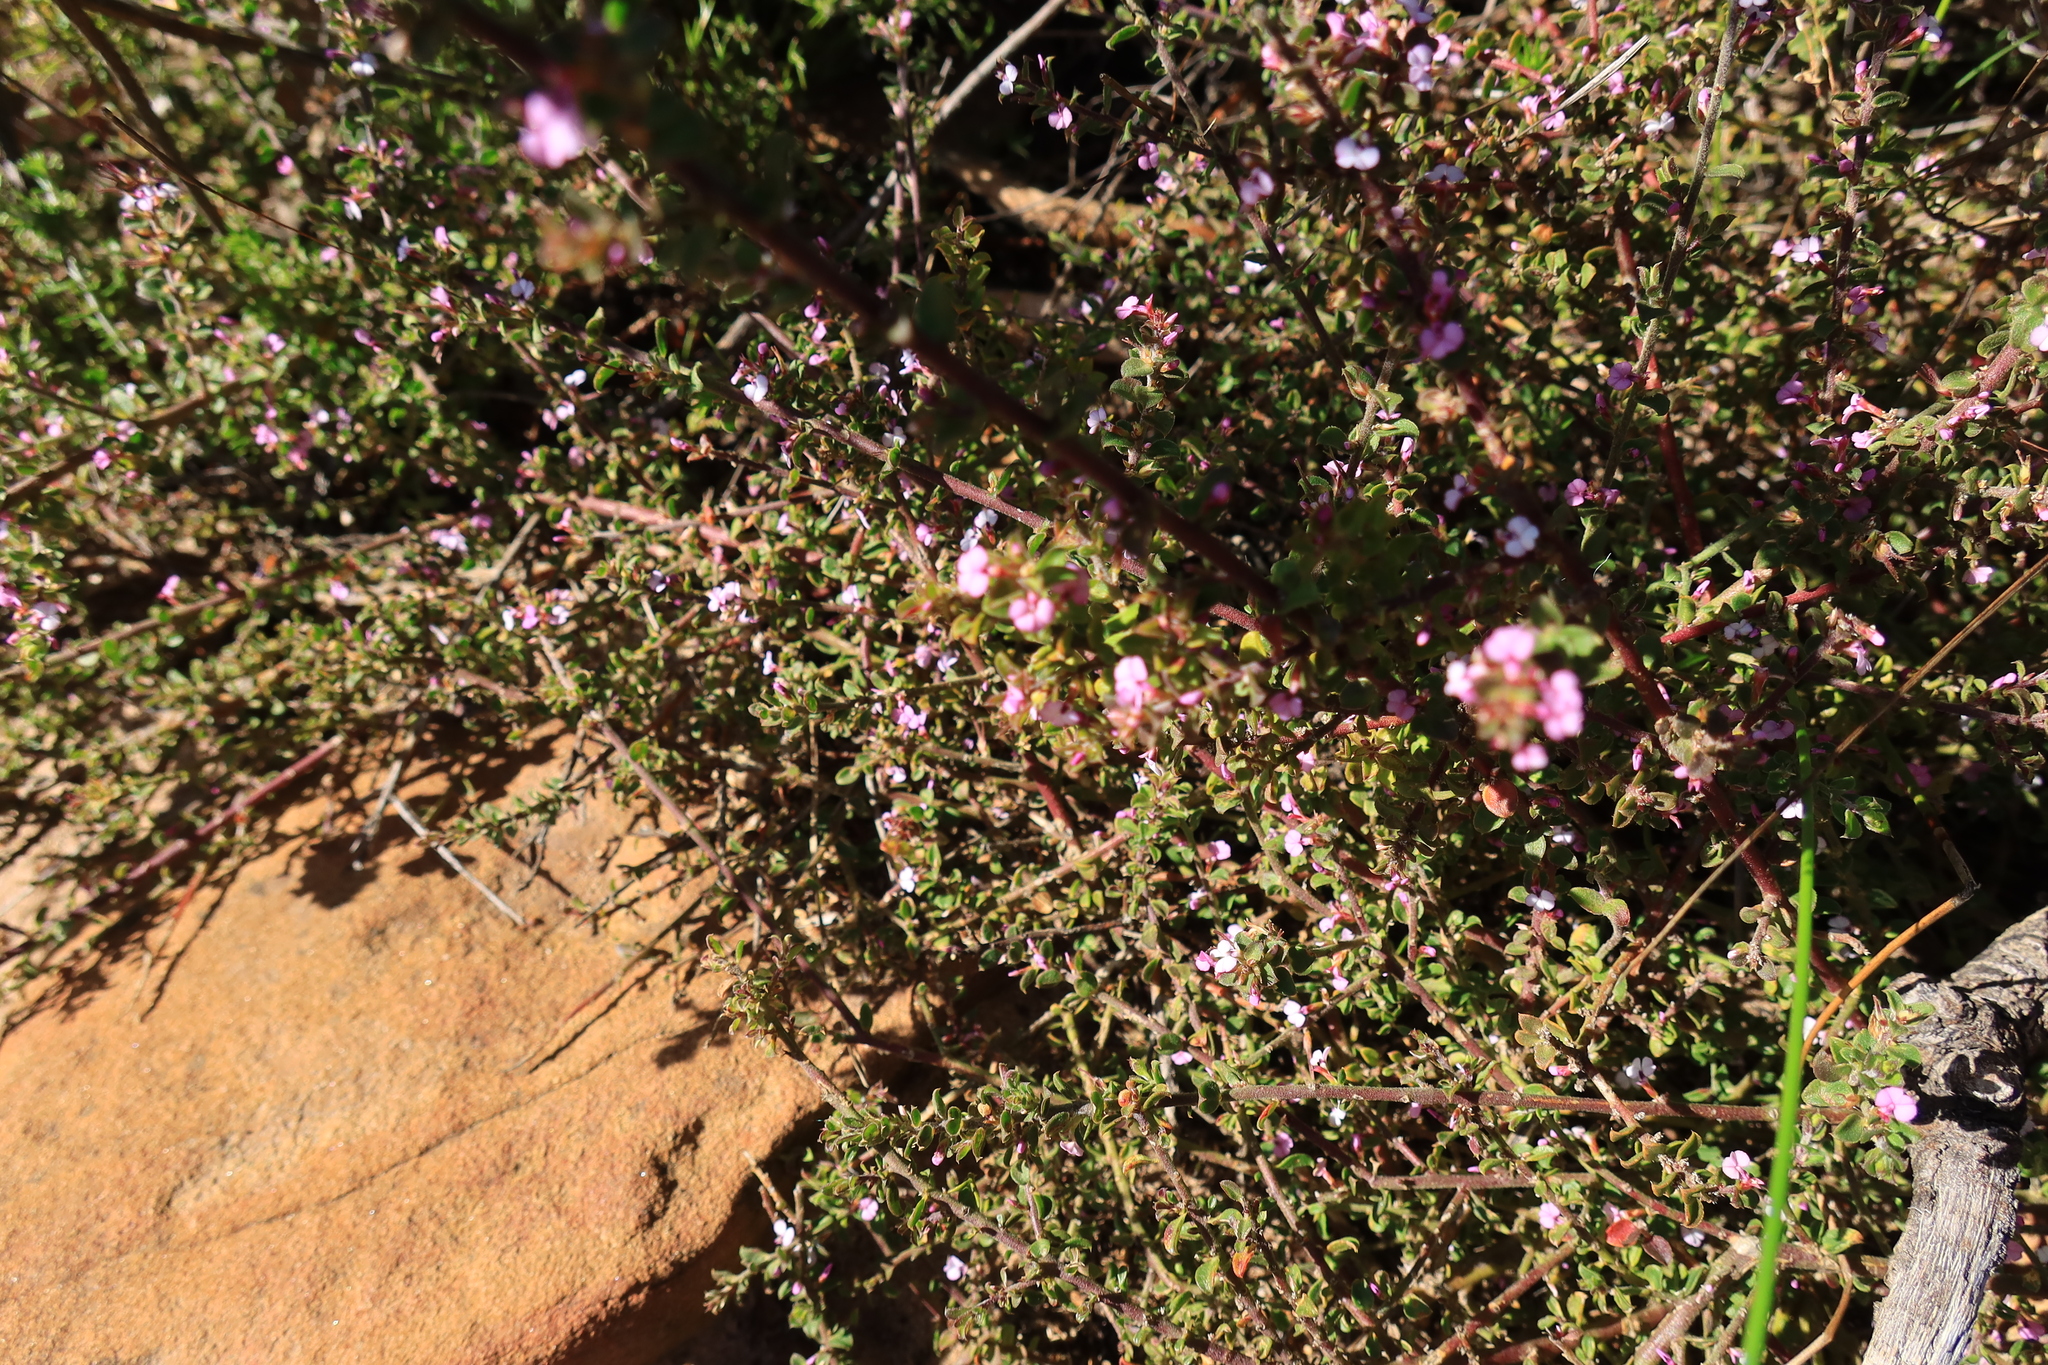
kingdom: Plantae
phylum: Tracheophyta
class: Magnoliopsida
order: Fabales
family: Polygalaceae
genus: Muraltia
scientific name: Muraltia orbicularis
